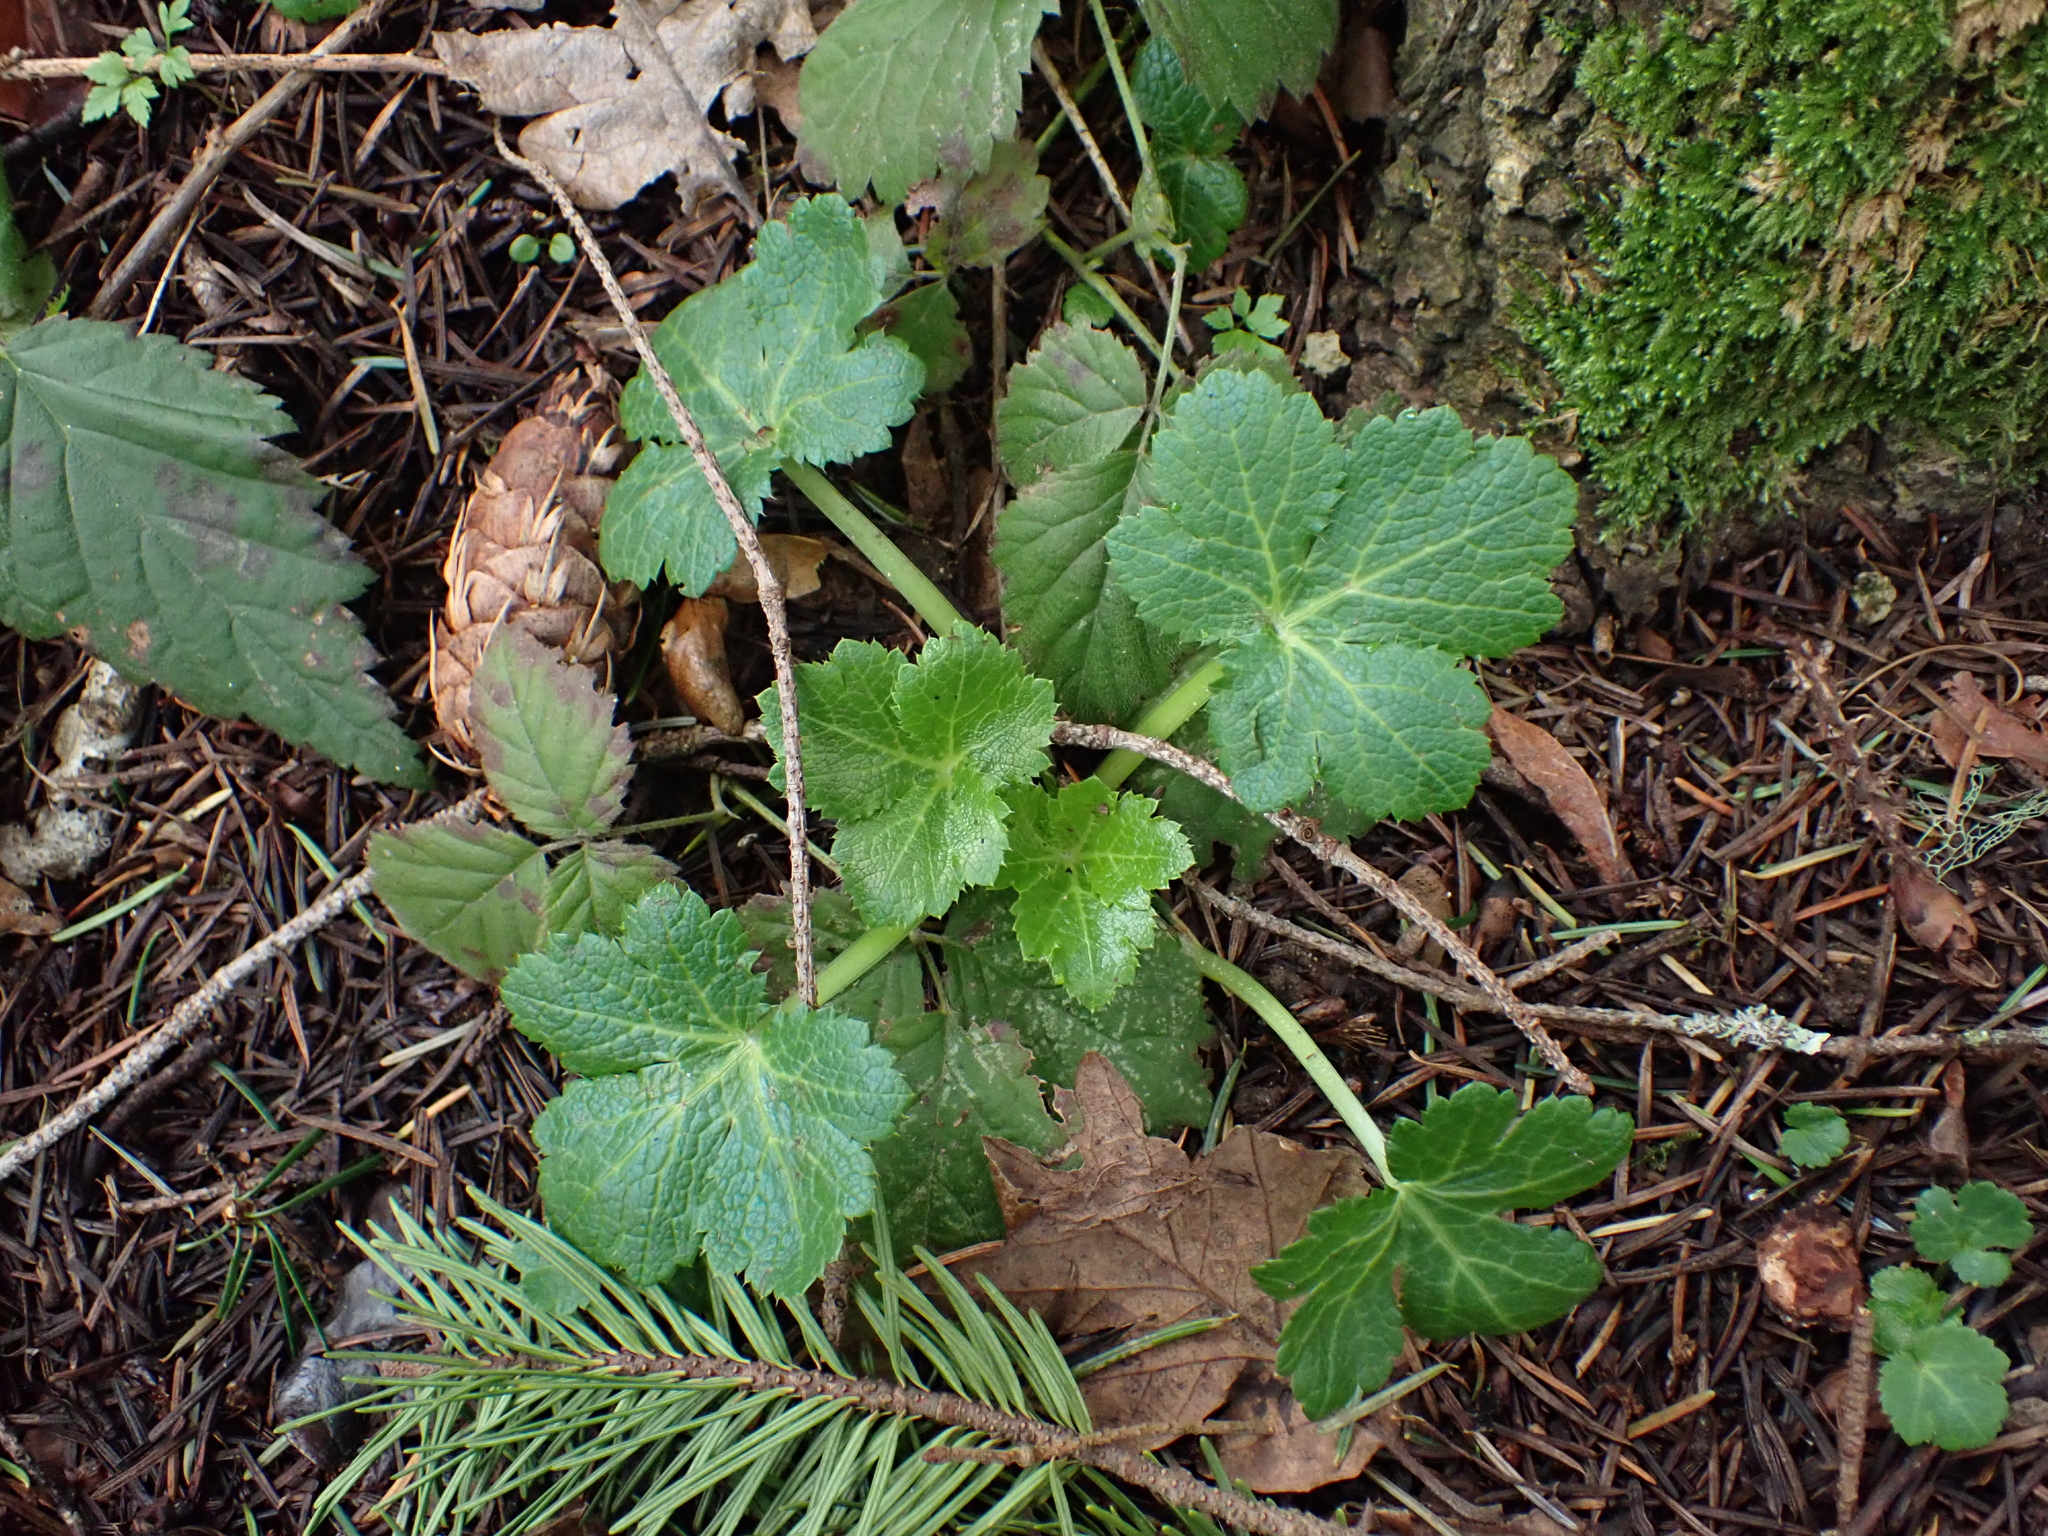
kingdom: Plantae
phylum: Tracheophyta
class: Magnoliopsida
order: Apiales
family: Apiaceae
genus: Sanicula
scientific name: Sanicula crassicaulis
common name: Western snakeroot
